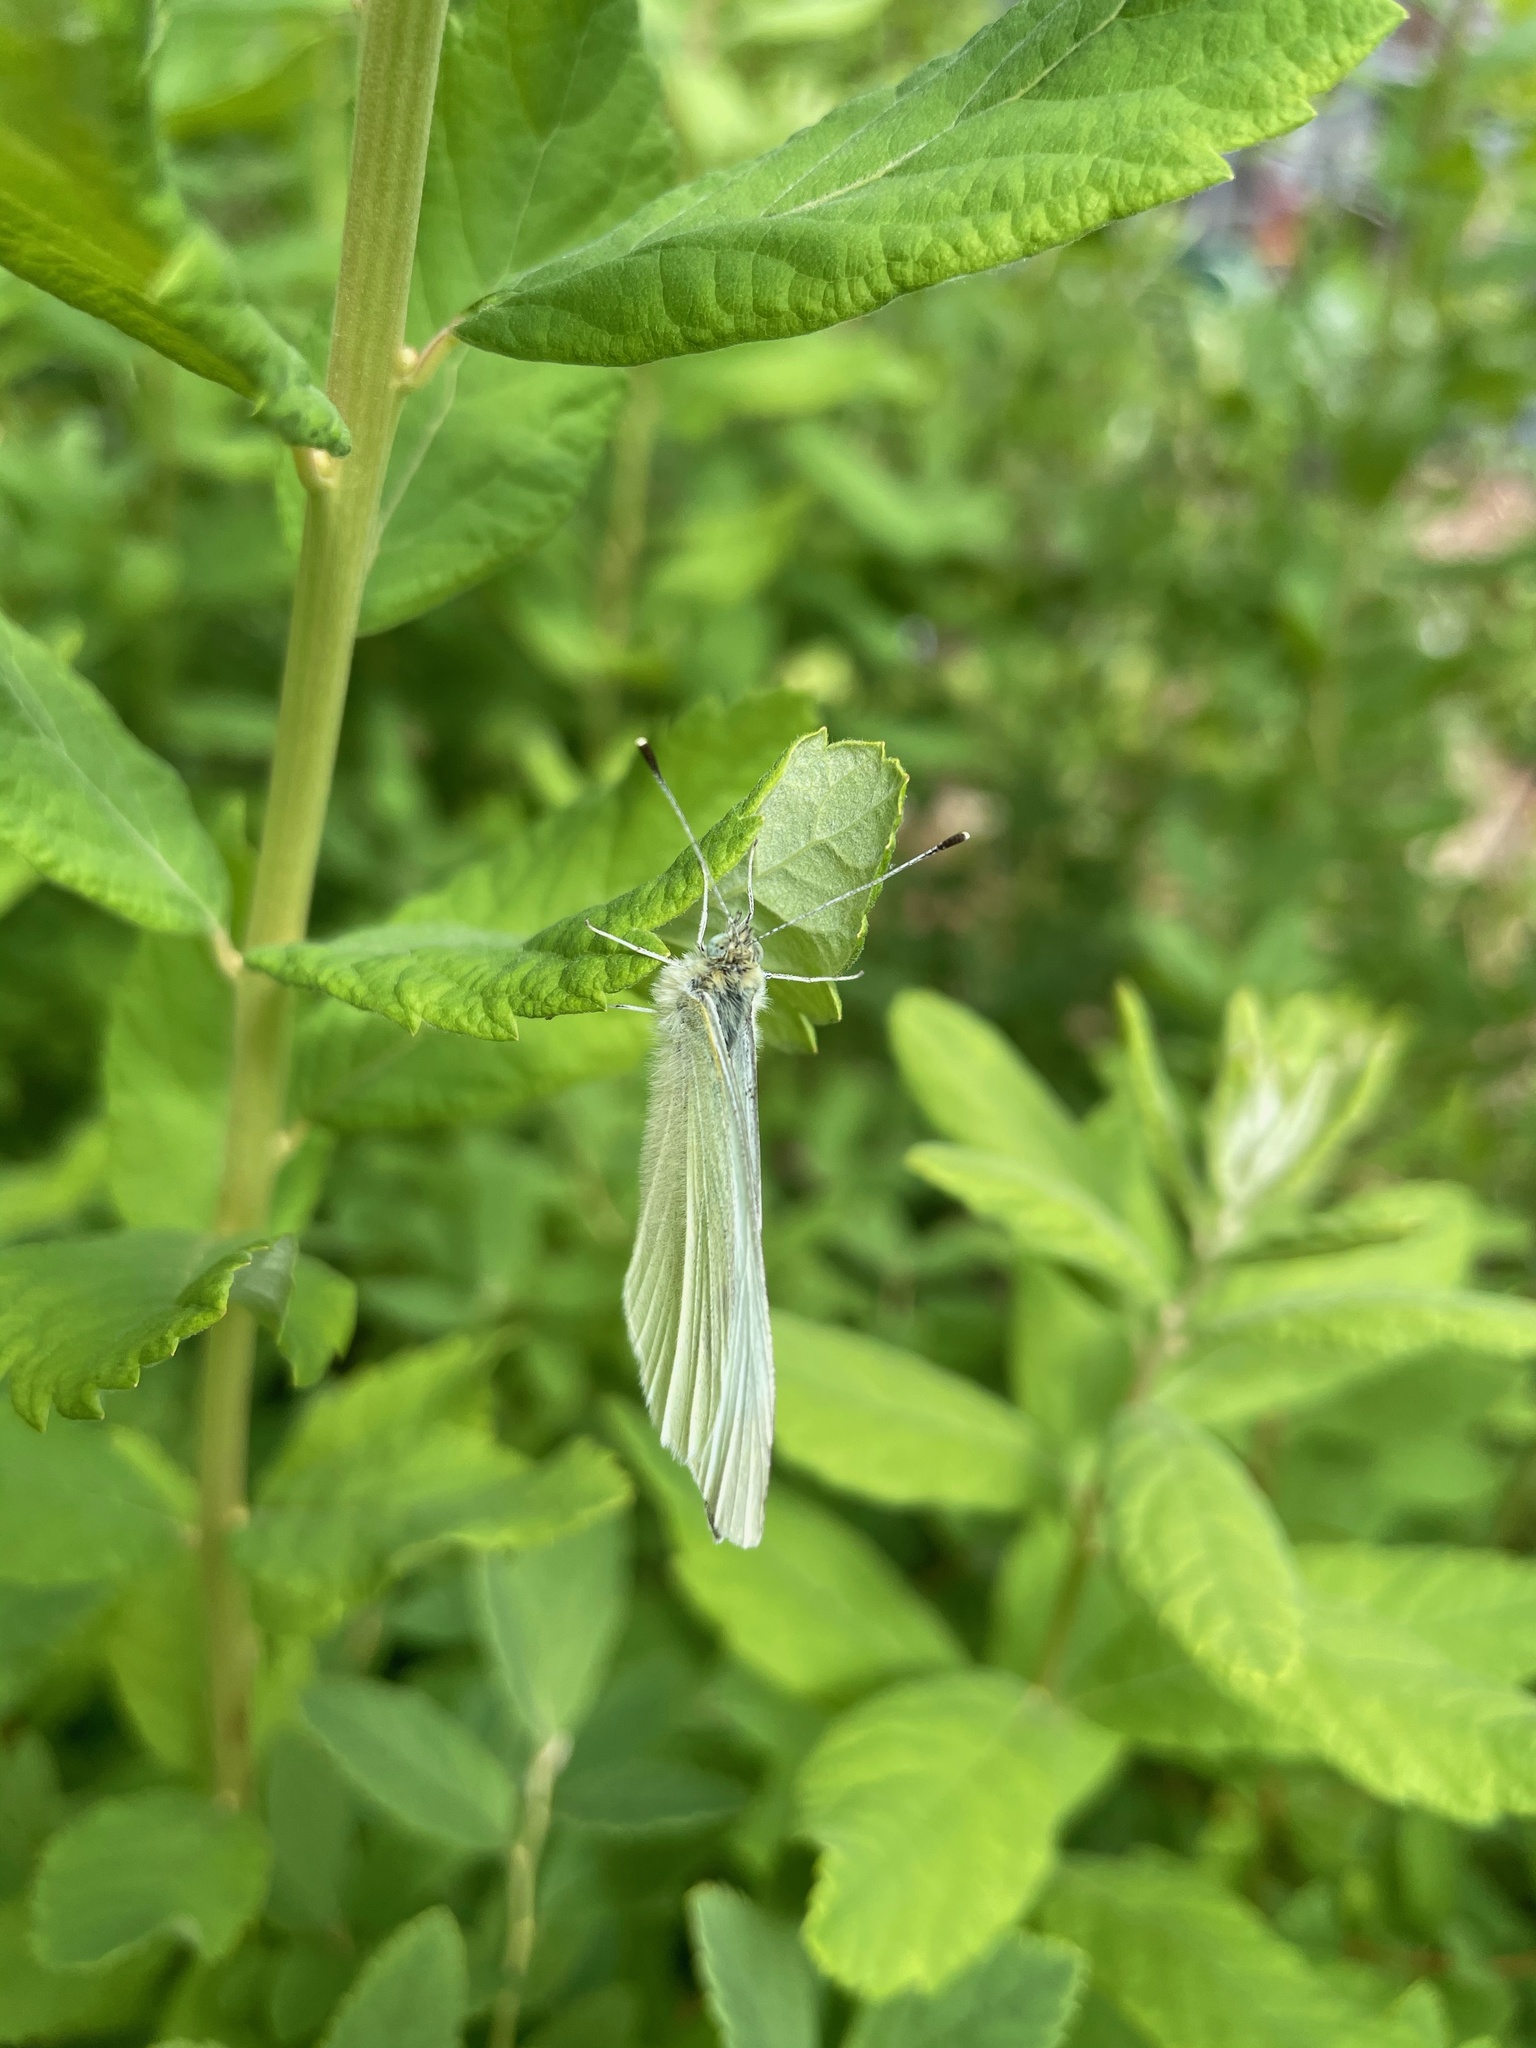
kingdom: Animalia
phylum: Arthropoda
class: Insecta
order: Lepidoptera
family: Pieridae
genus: Pieris
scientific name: Pieris rapae
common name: Small white
